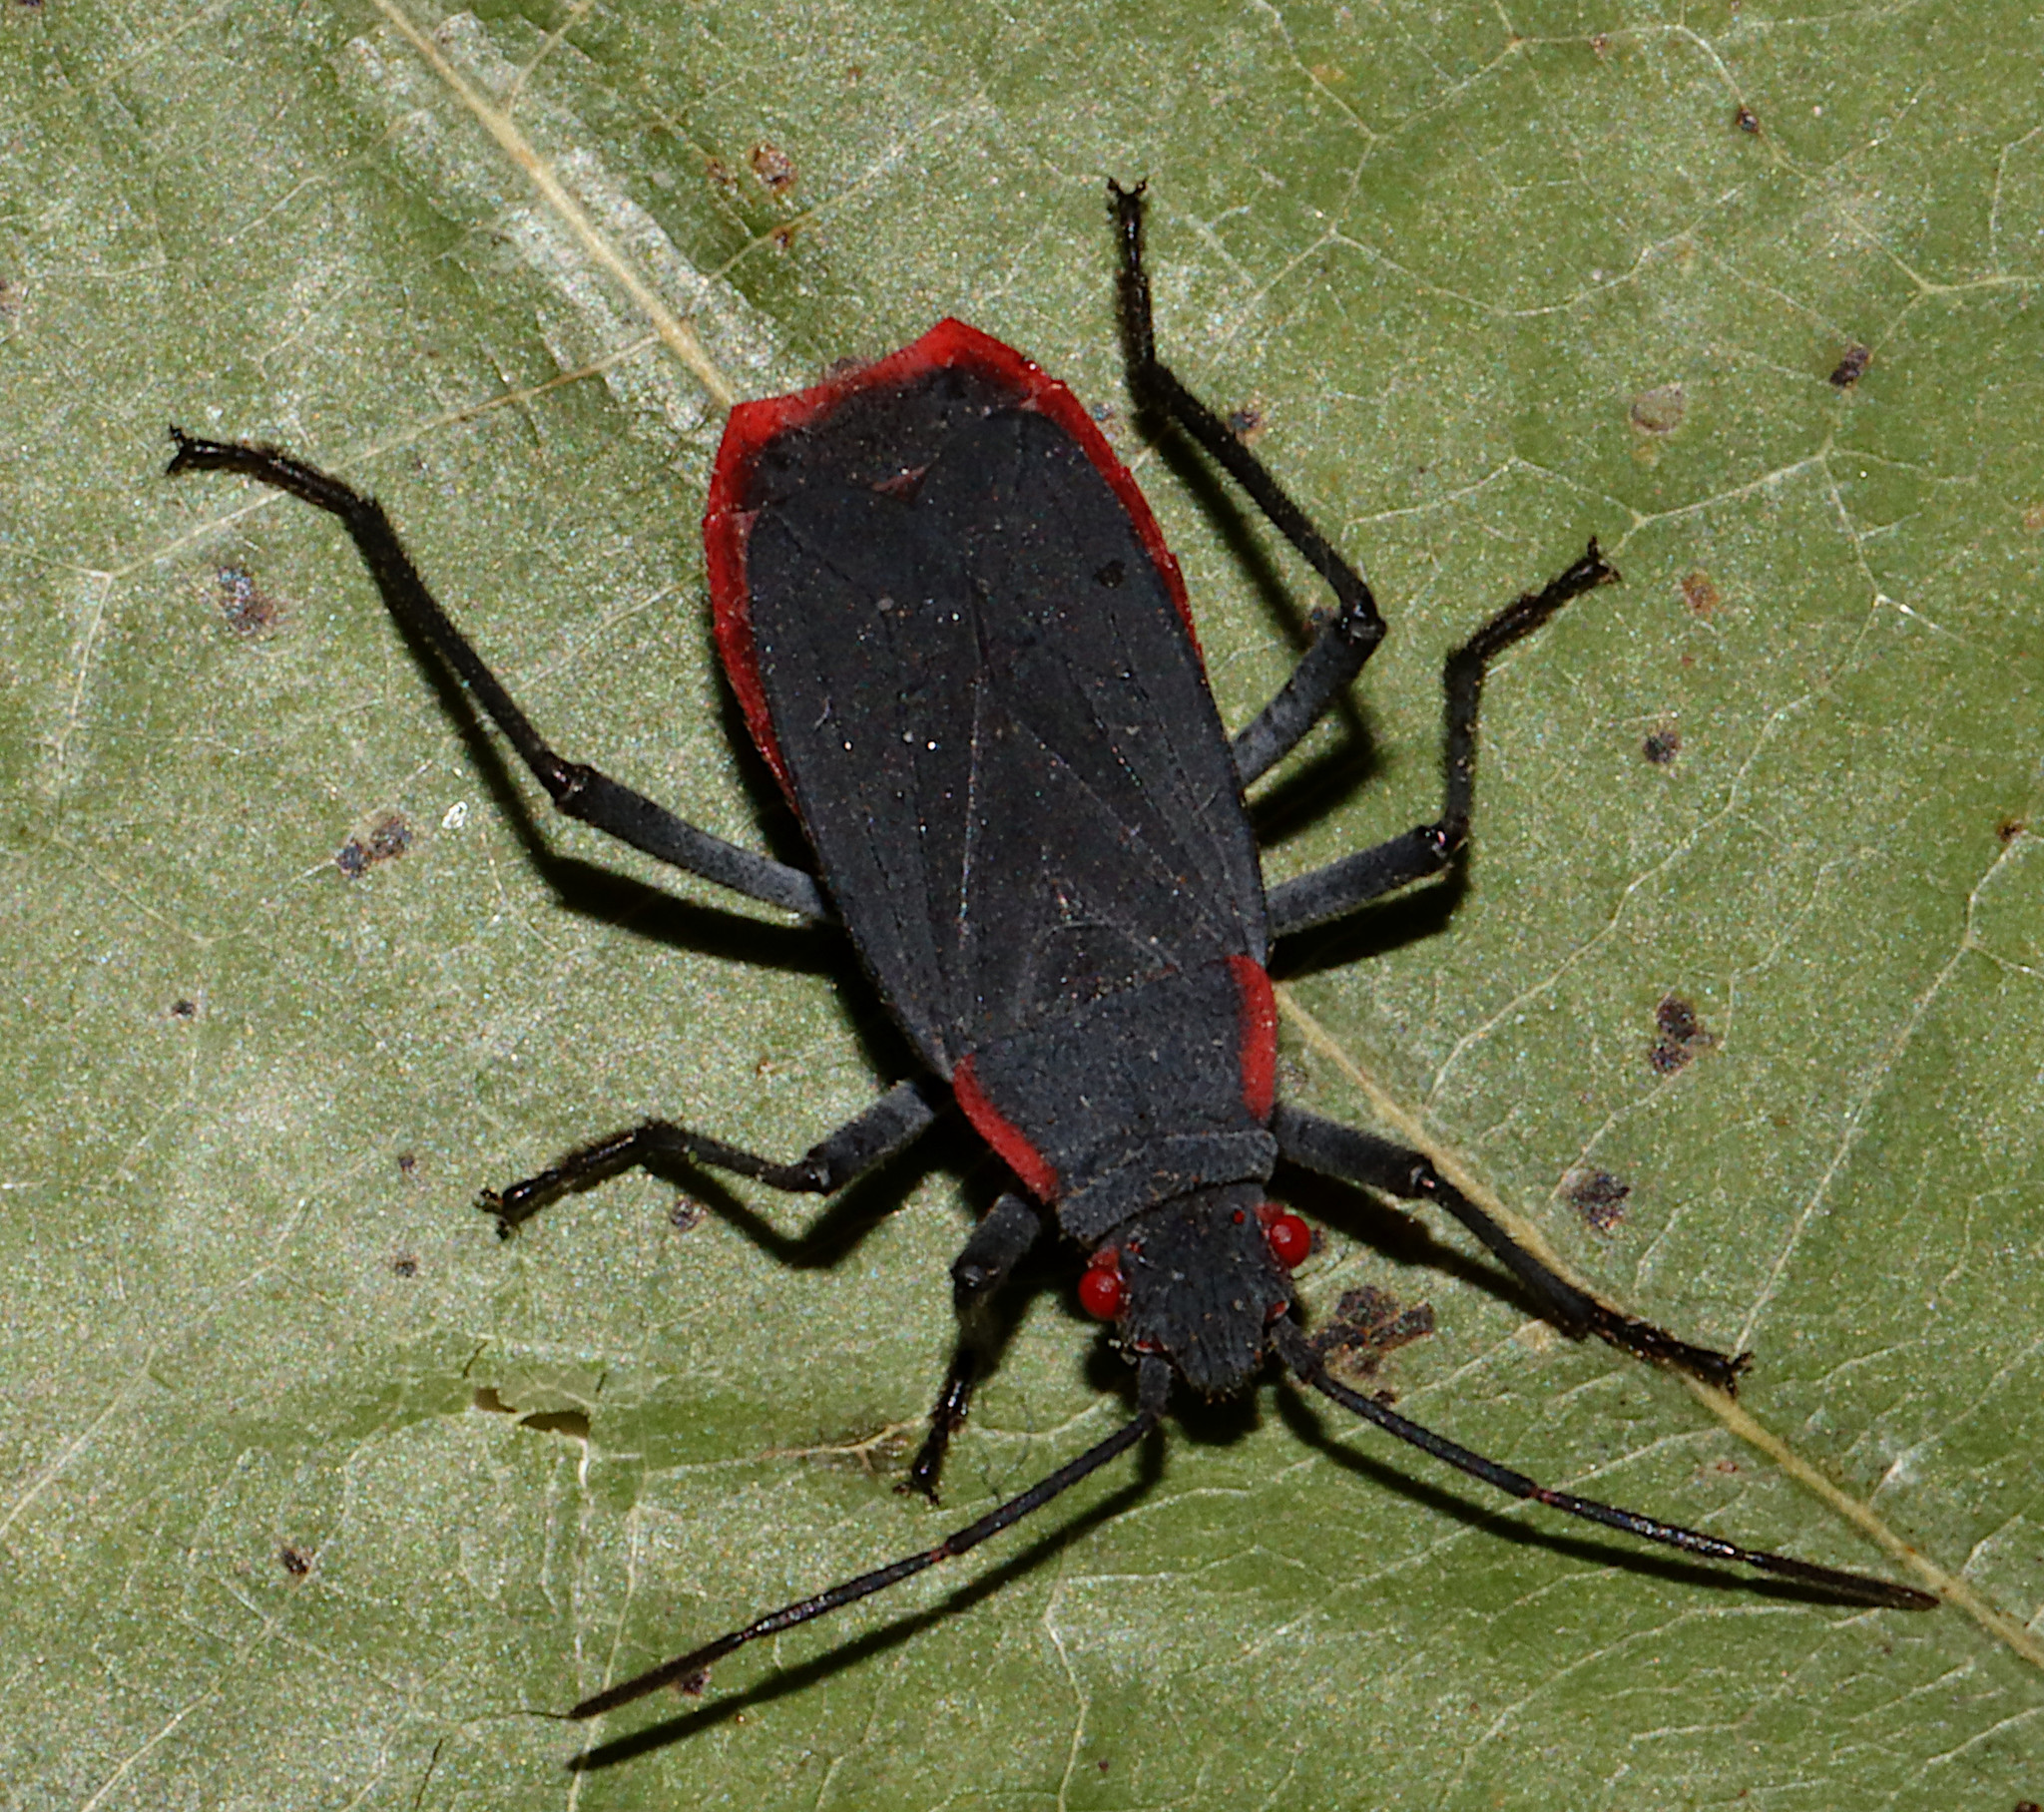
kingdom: Animalia
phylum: Arthropoda
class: Insecta
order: Hemiptera
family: Rhopalidae
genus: Jadera
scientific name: Jadera haematoloma
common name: Red-shouldered bug
